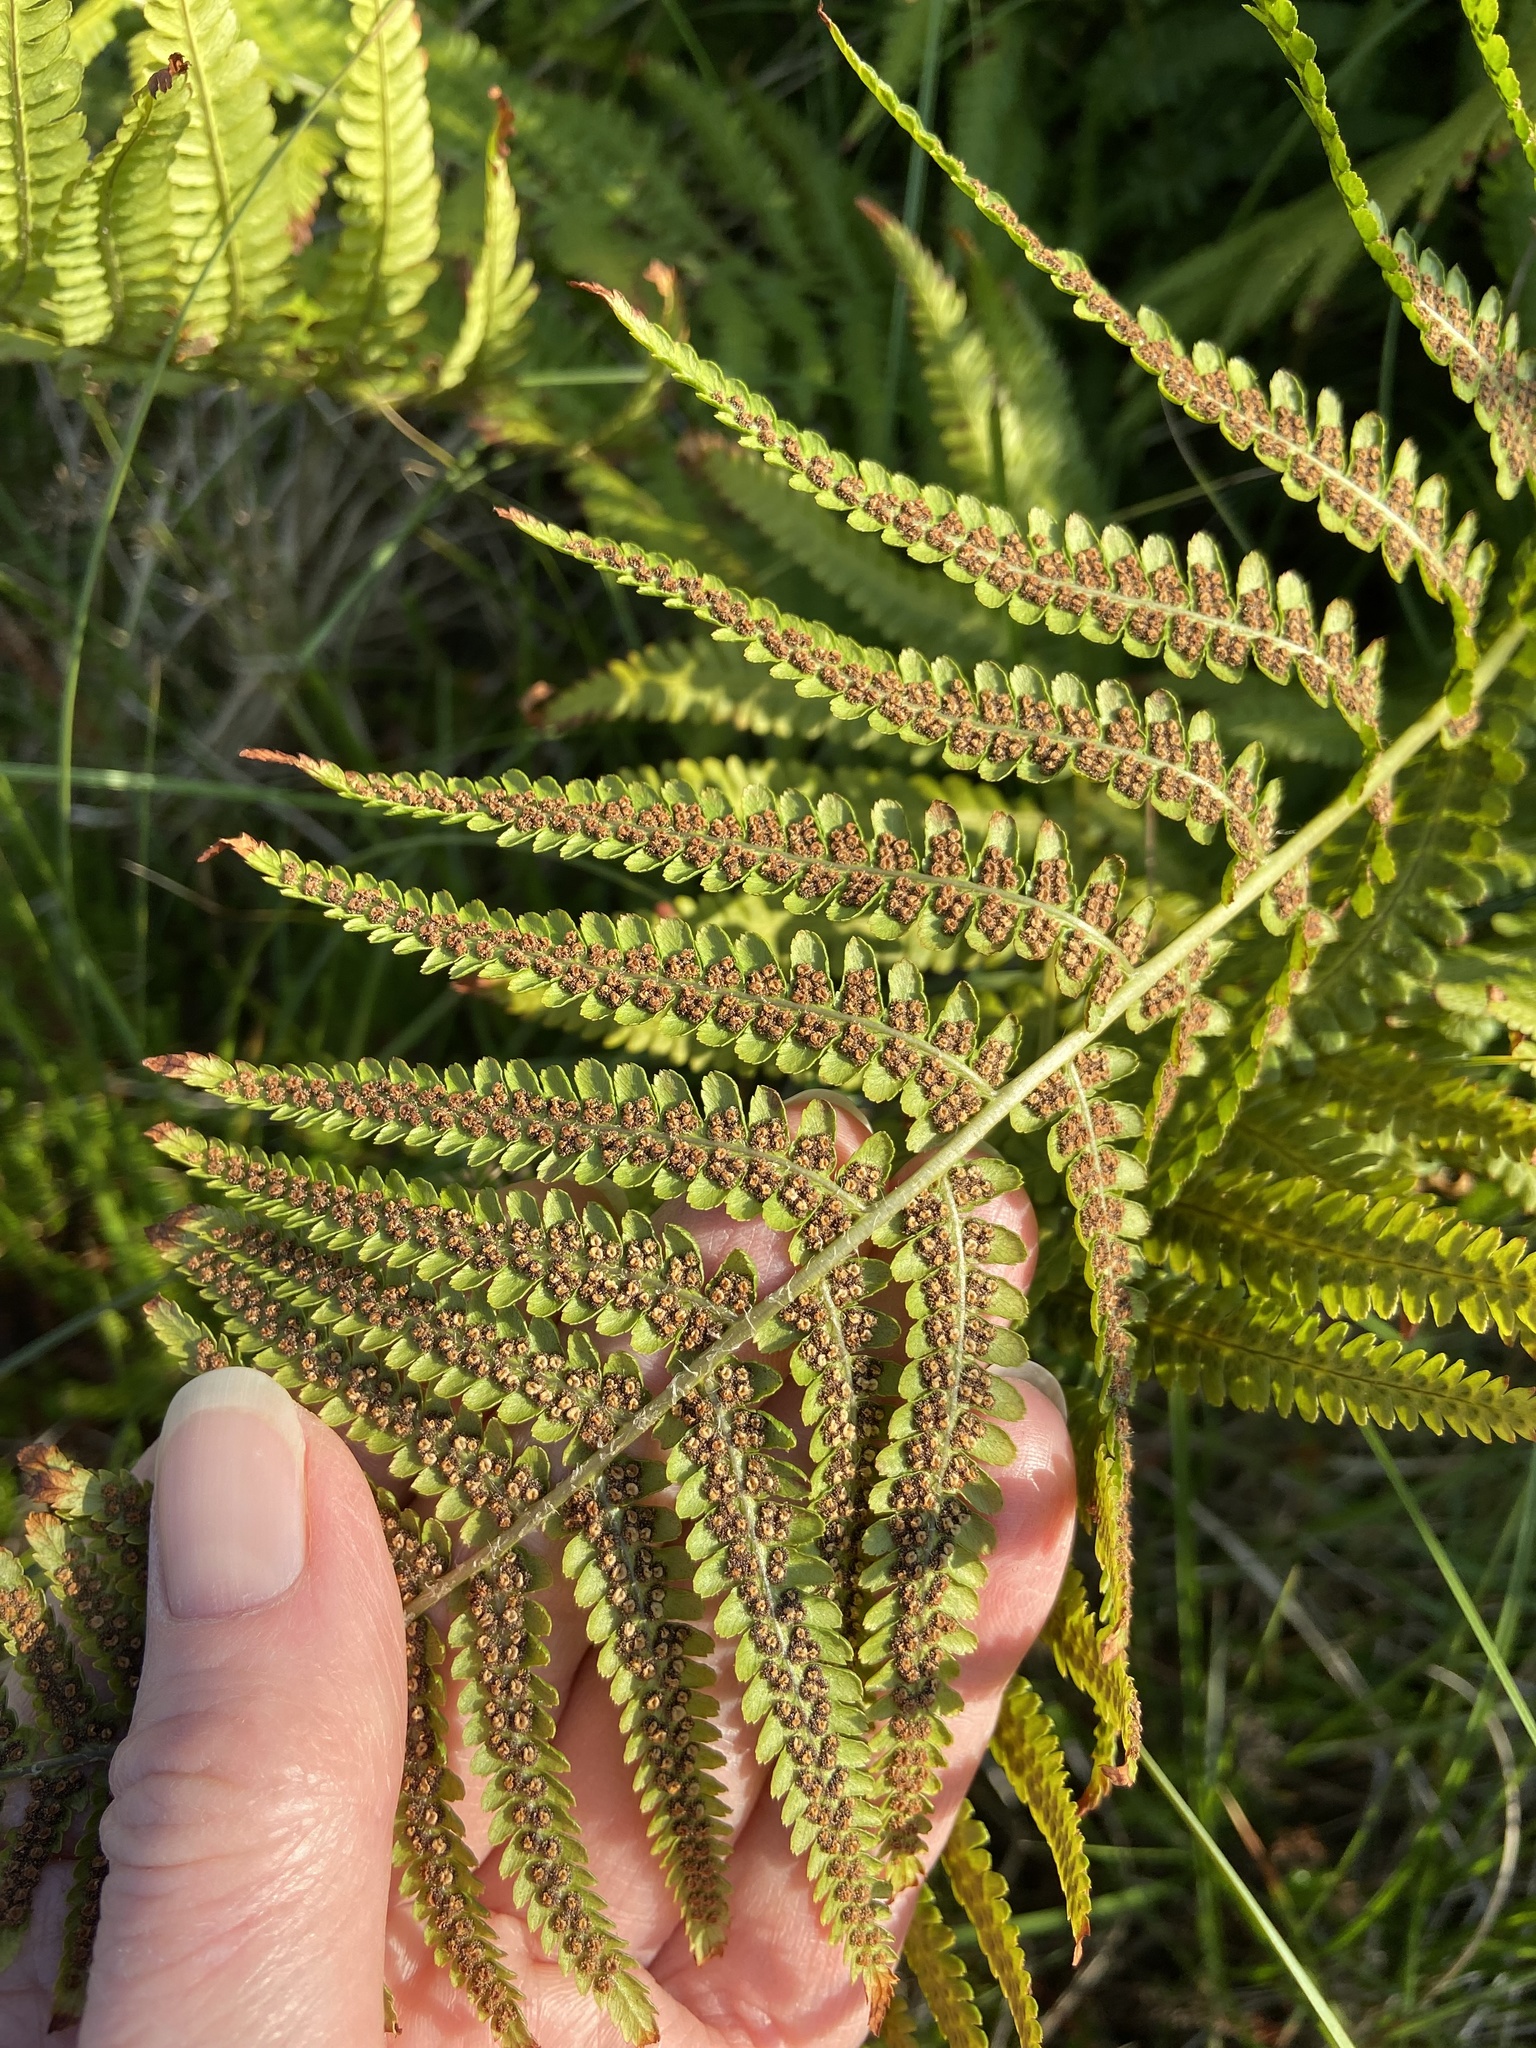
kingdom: Plantae
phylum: Tracheophyta
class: Polypodiopsida
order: Polypodiales
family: Dryopteridaceae
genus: Dryopteris
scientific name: Dryopteris filix-mas
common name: Male fern
